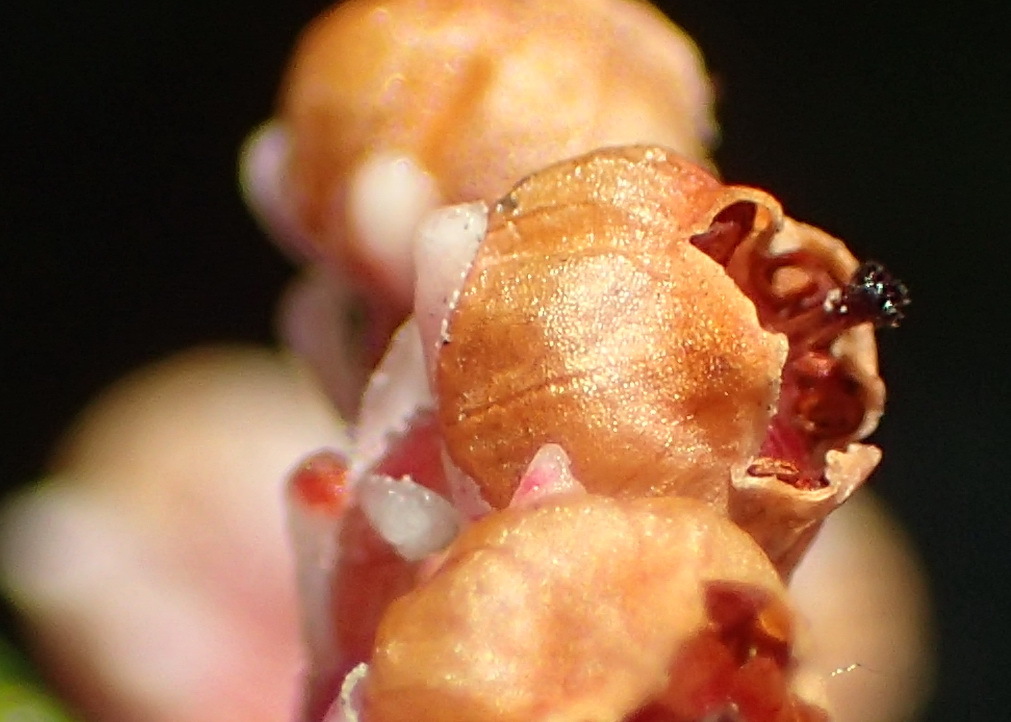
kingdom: Plantae
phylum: Tracheophyta
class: Magnoliopsida
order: Ericales
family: Ericaceae
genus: Erica
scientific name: Erica spectabilis
